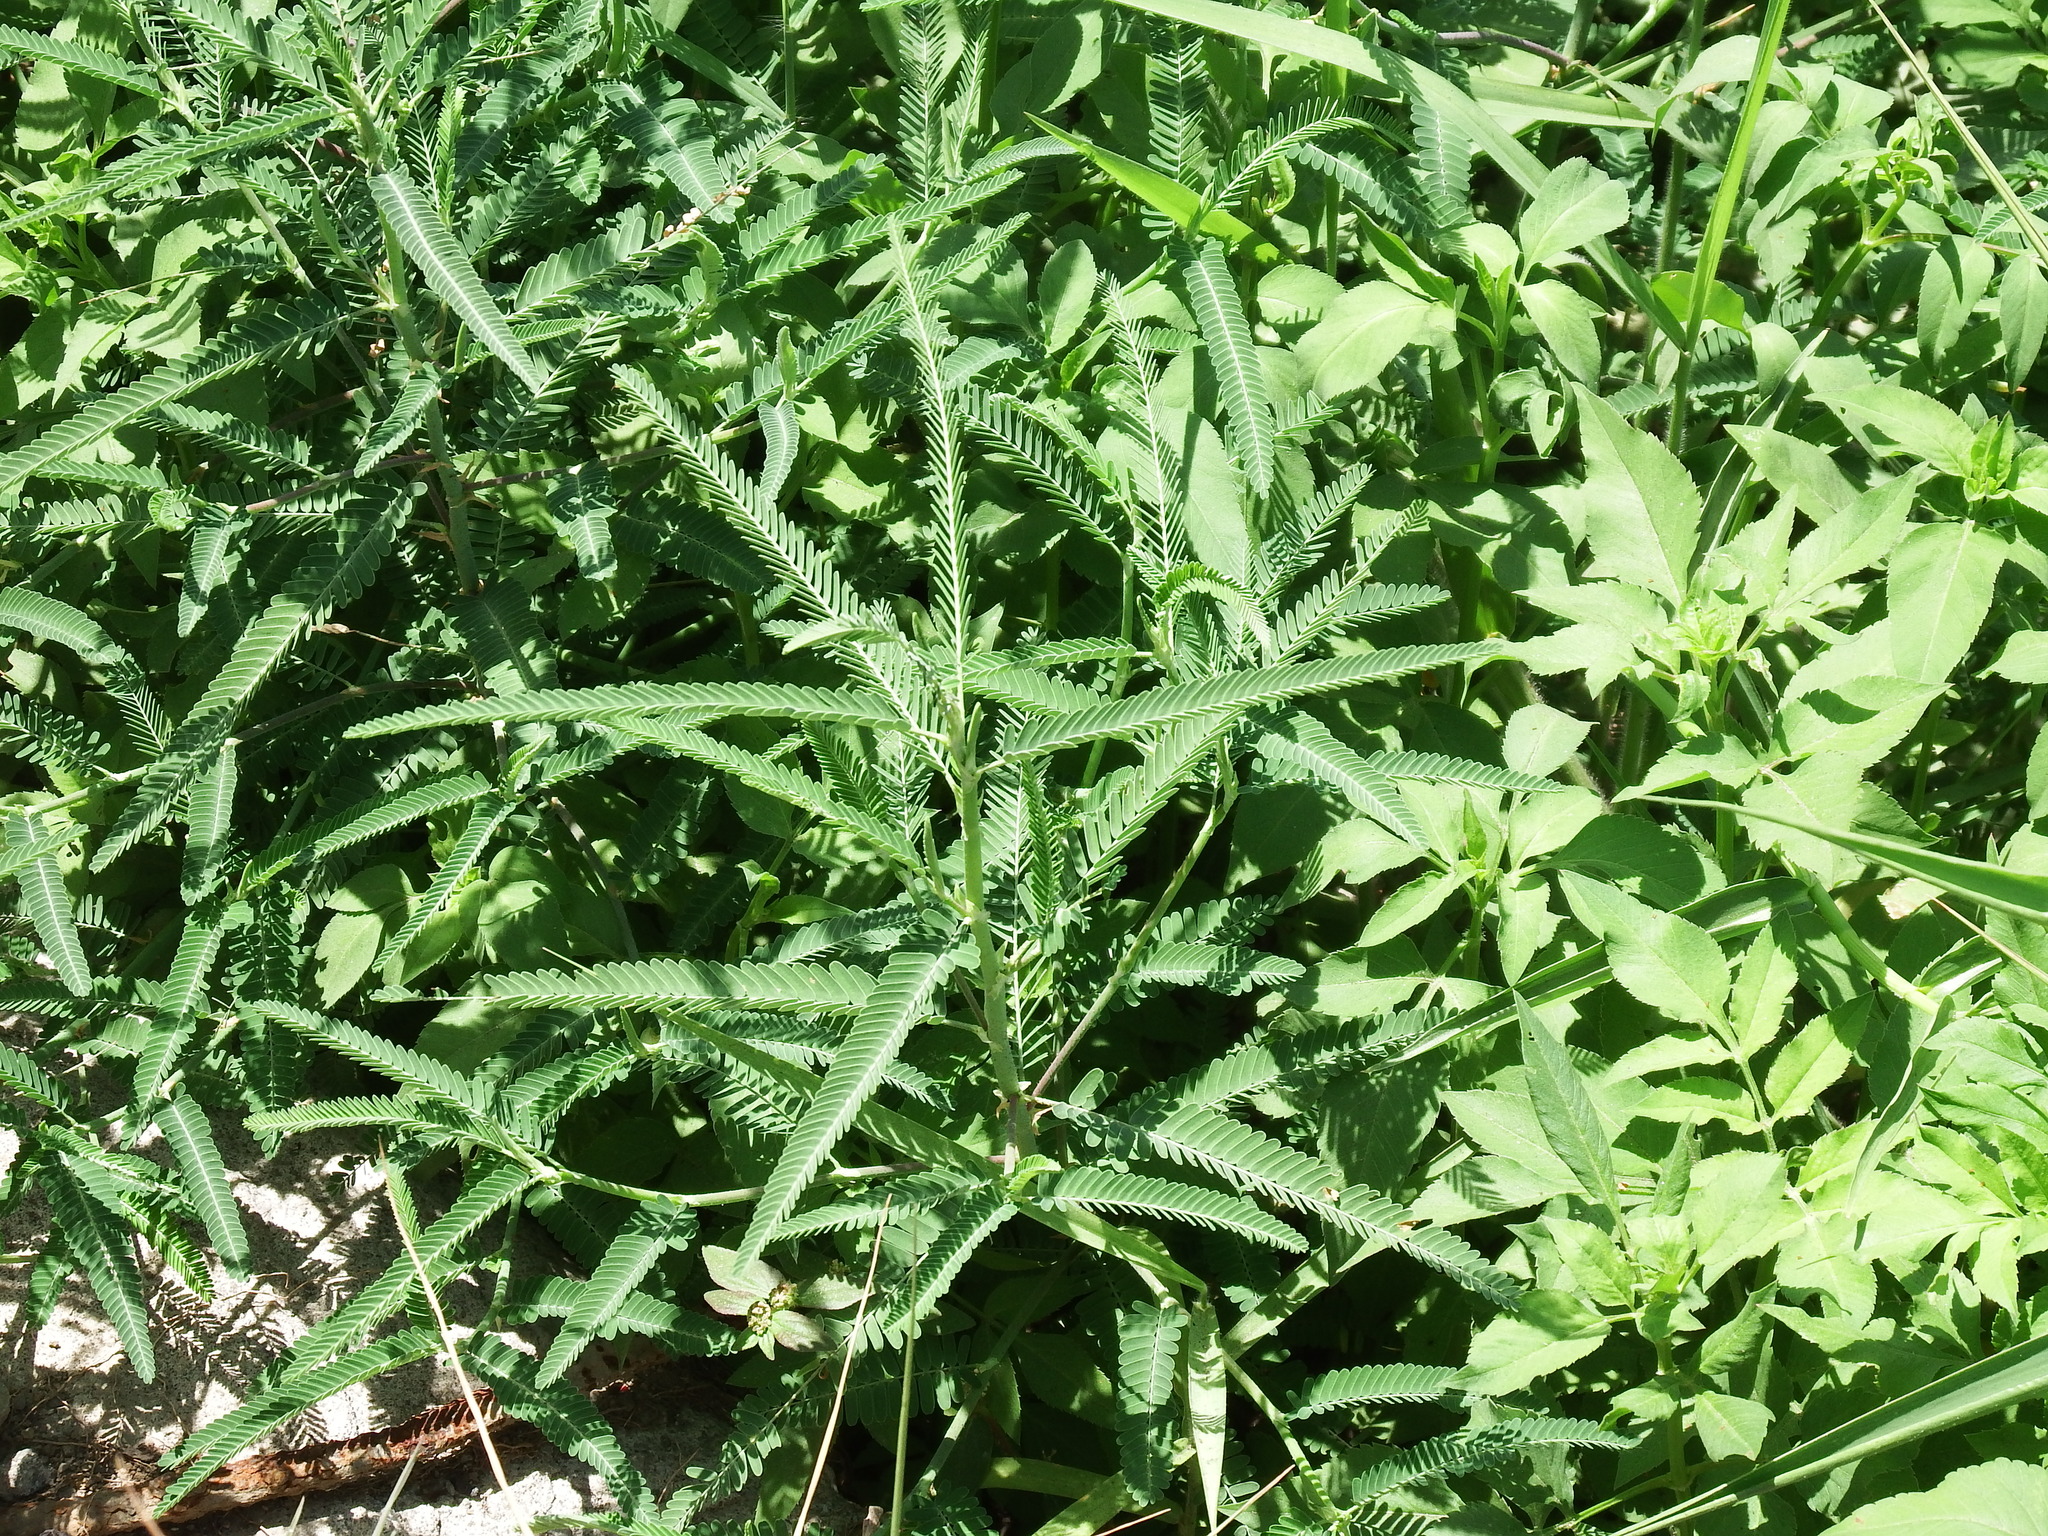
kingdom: Plantae
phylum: Tracheophyta
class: Magnoliopsida
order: Fabales
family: Fabaceae
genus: Sesbania
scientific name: Sesbania cannabina
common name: Canicha
